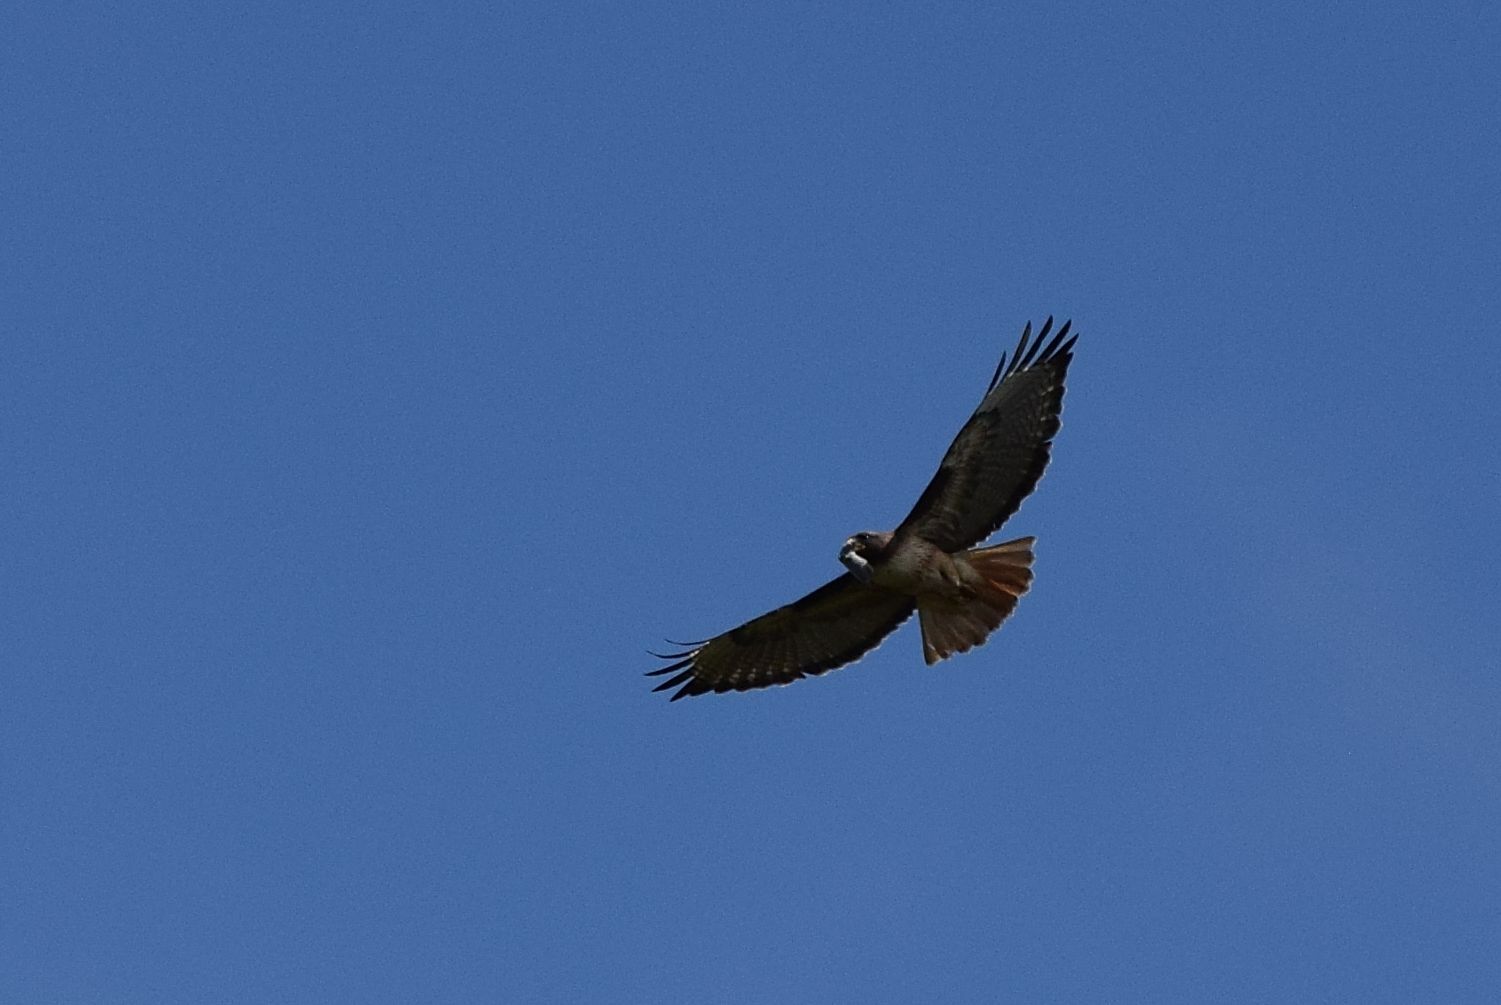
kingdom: Animalia
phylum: Chordata
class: Aves
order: Accipitriformes
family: Accipitridae
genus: Buteo
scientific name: Buteo jamaicensis
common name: Red-tailed hawk
